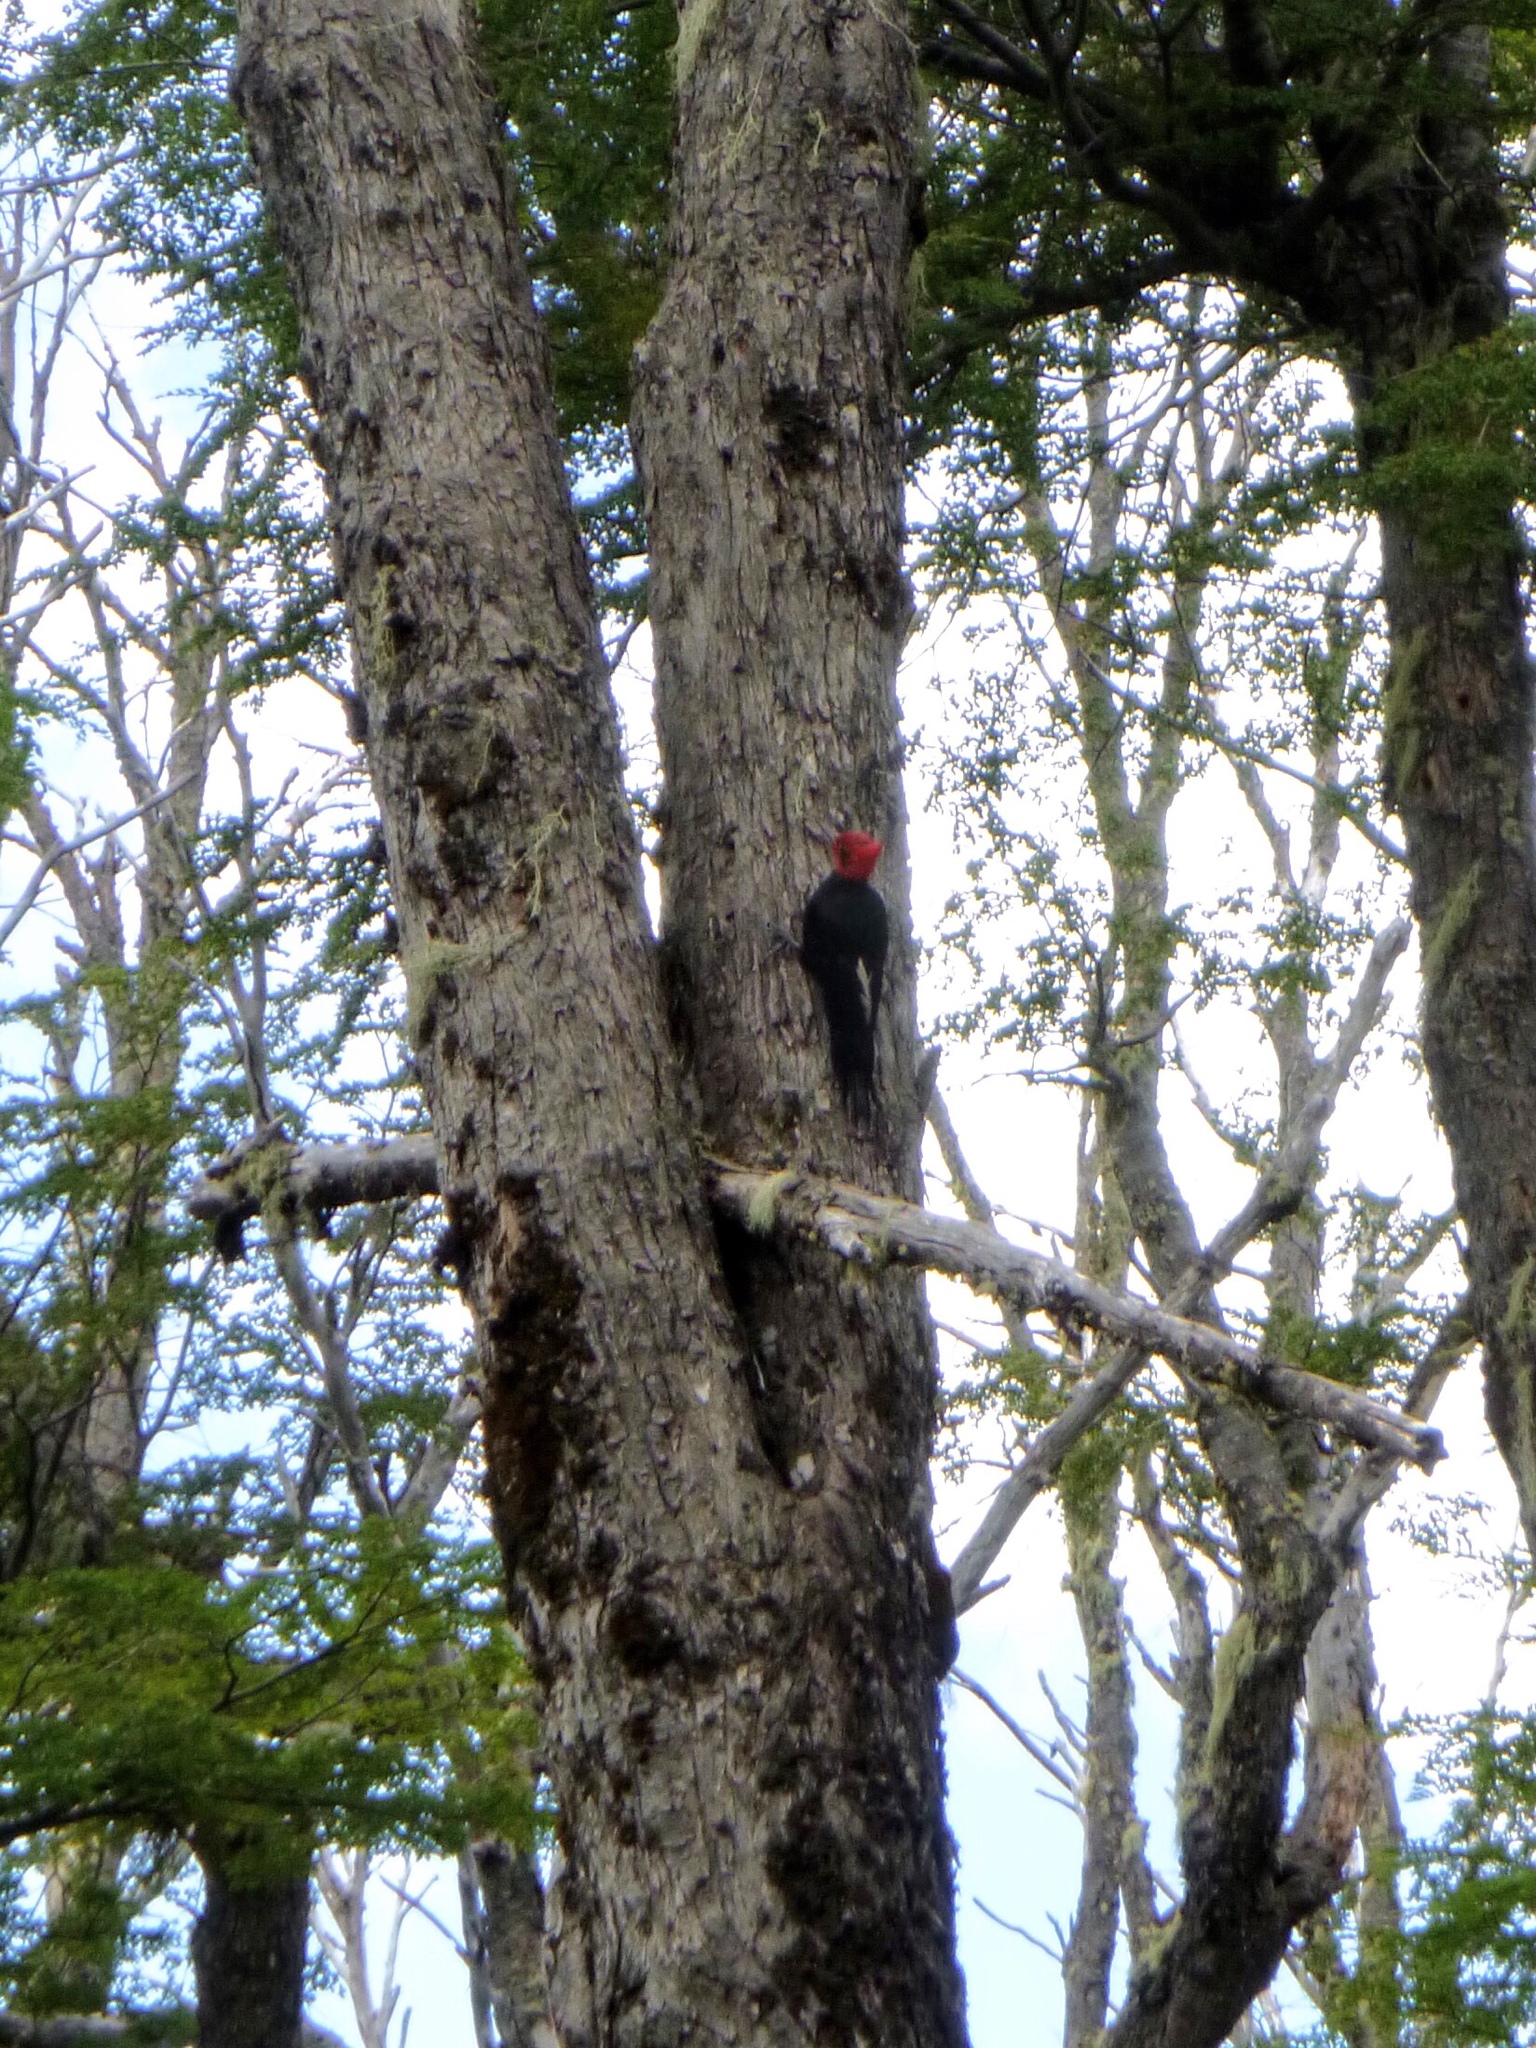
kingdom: Animalia
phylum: Chordata
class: Aves
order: Piciformes
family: Picidae
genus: Campephilus
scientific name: Campephilus magellanicus
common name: Magellanic woodpecker
